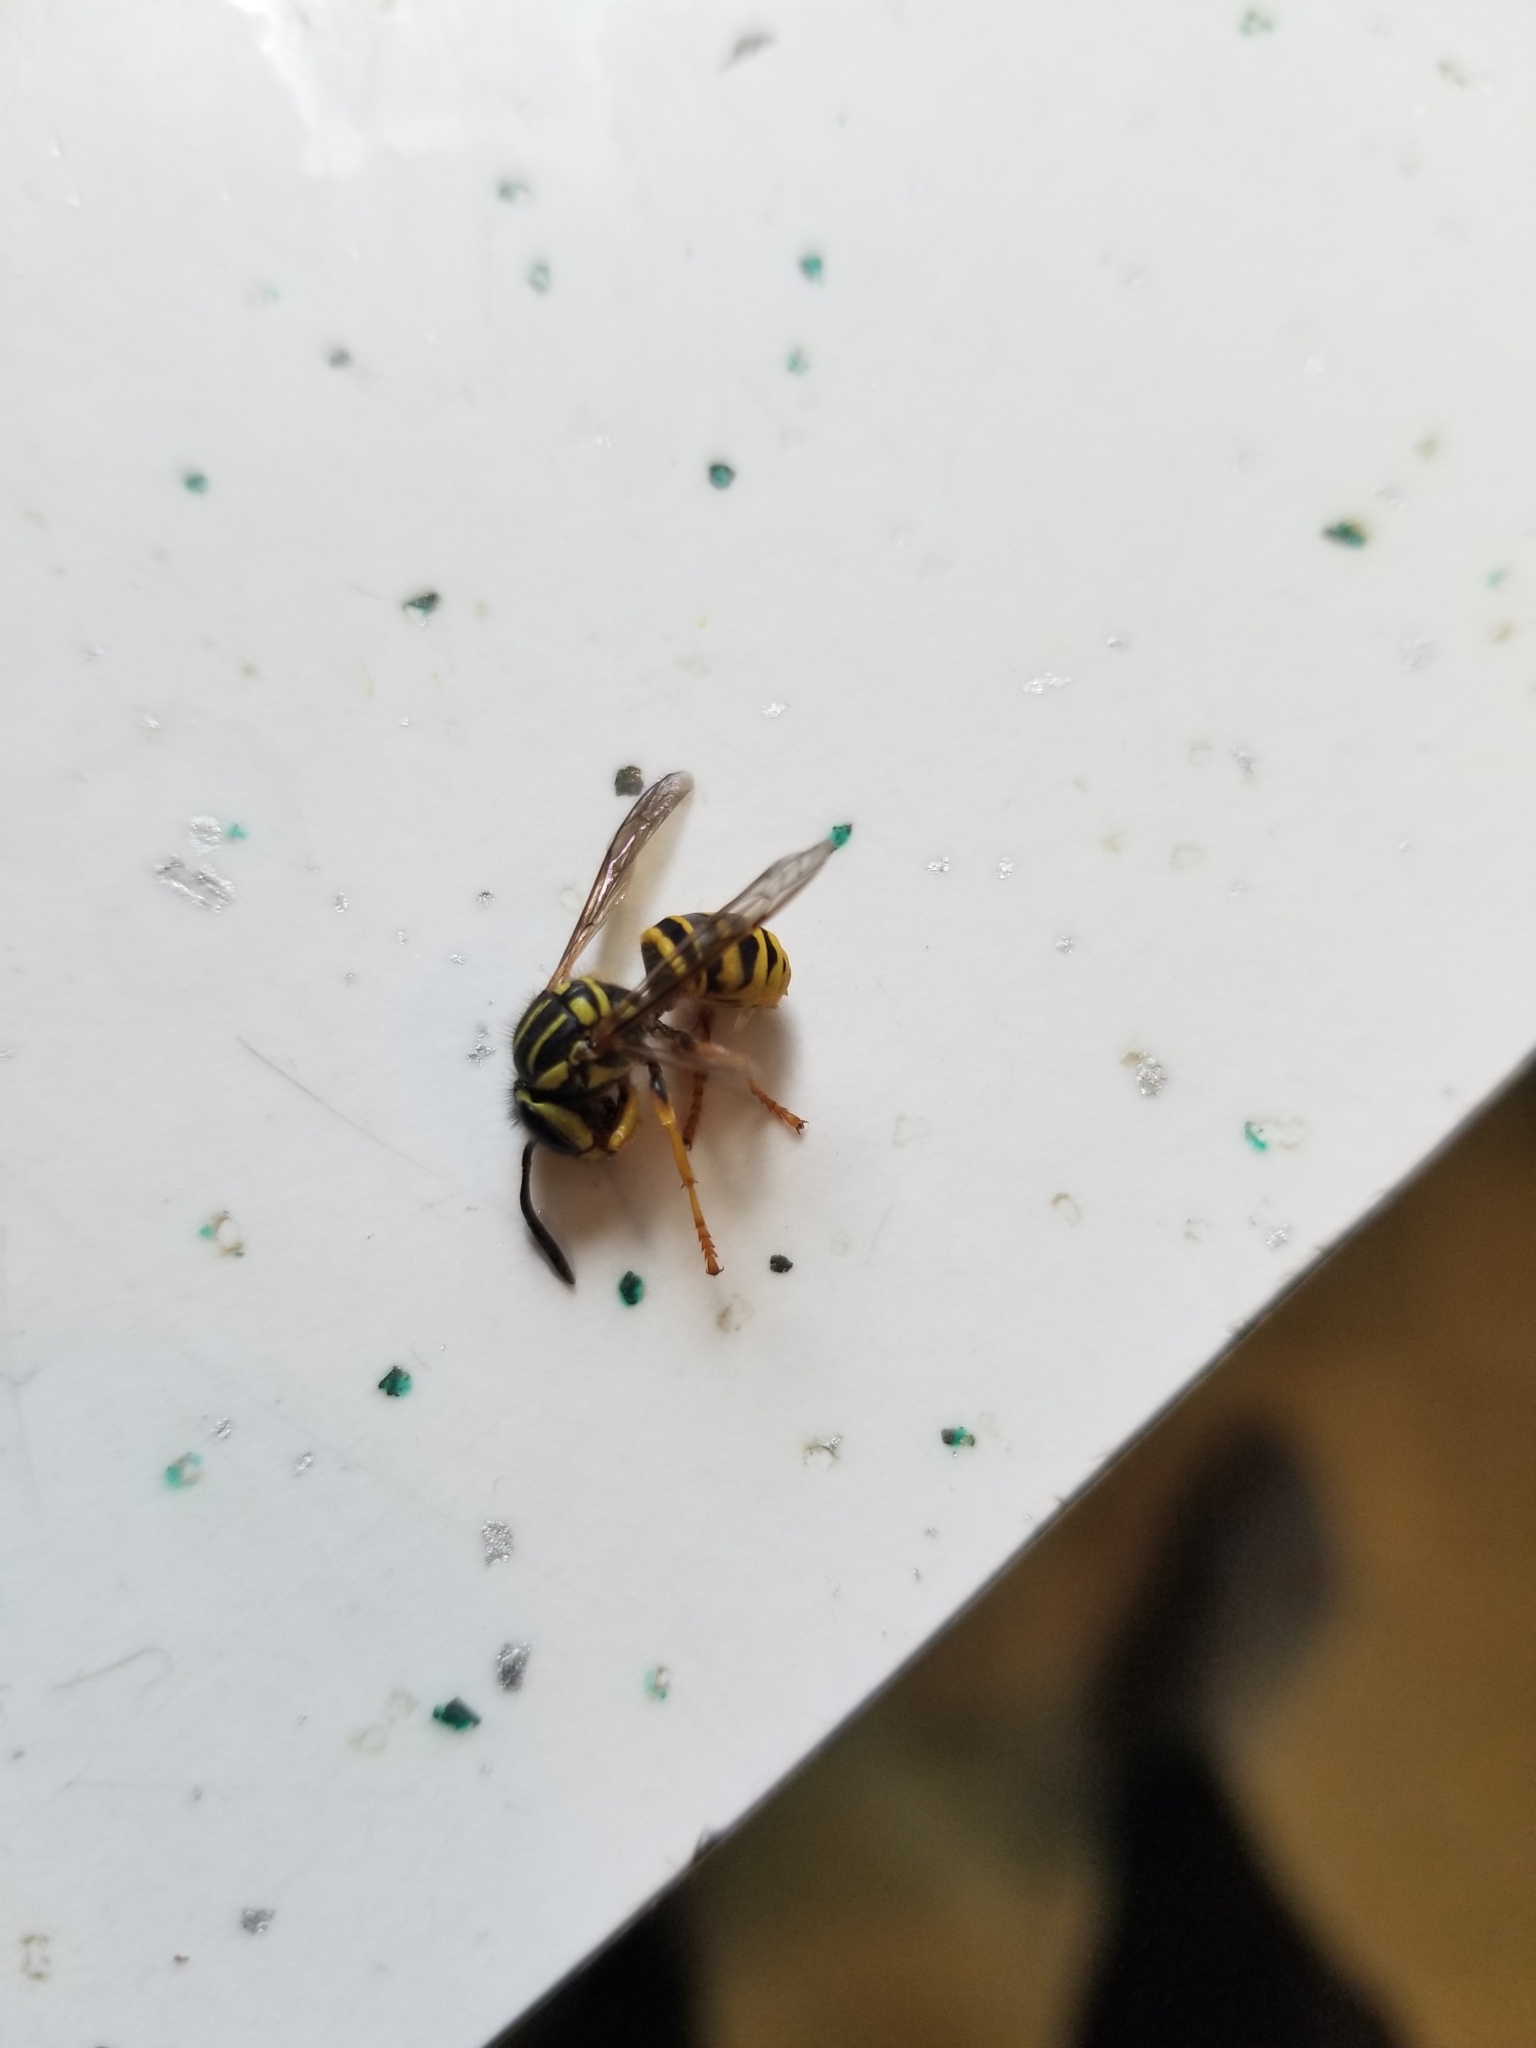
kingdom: Animalia
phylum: Arthropoda
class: Insecta
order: Hymenoptera
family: Vespidae
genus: Vespula
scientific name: Vespula squamosa
